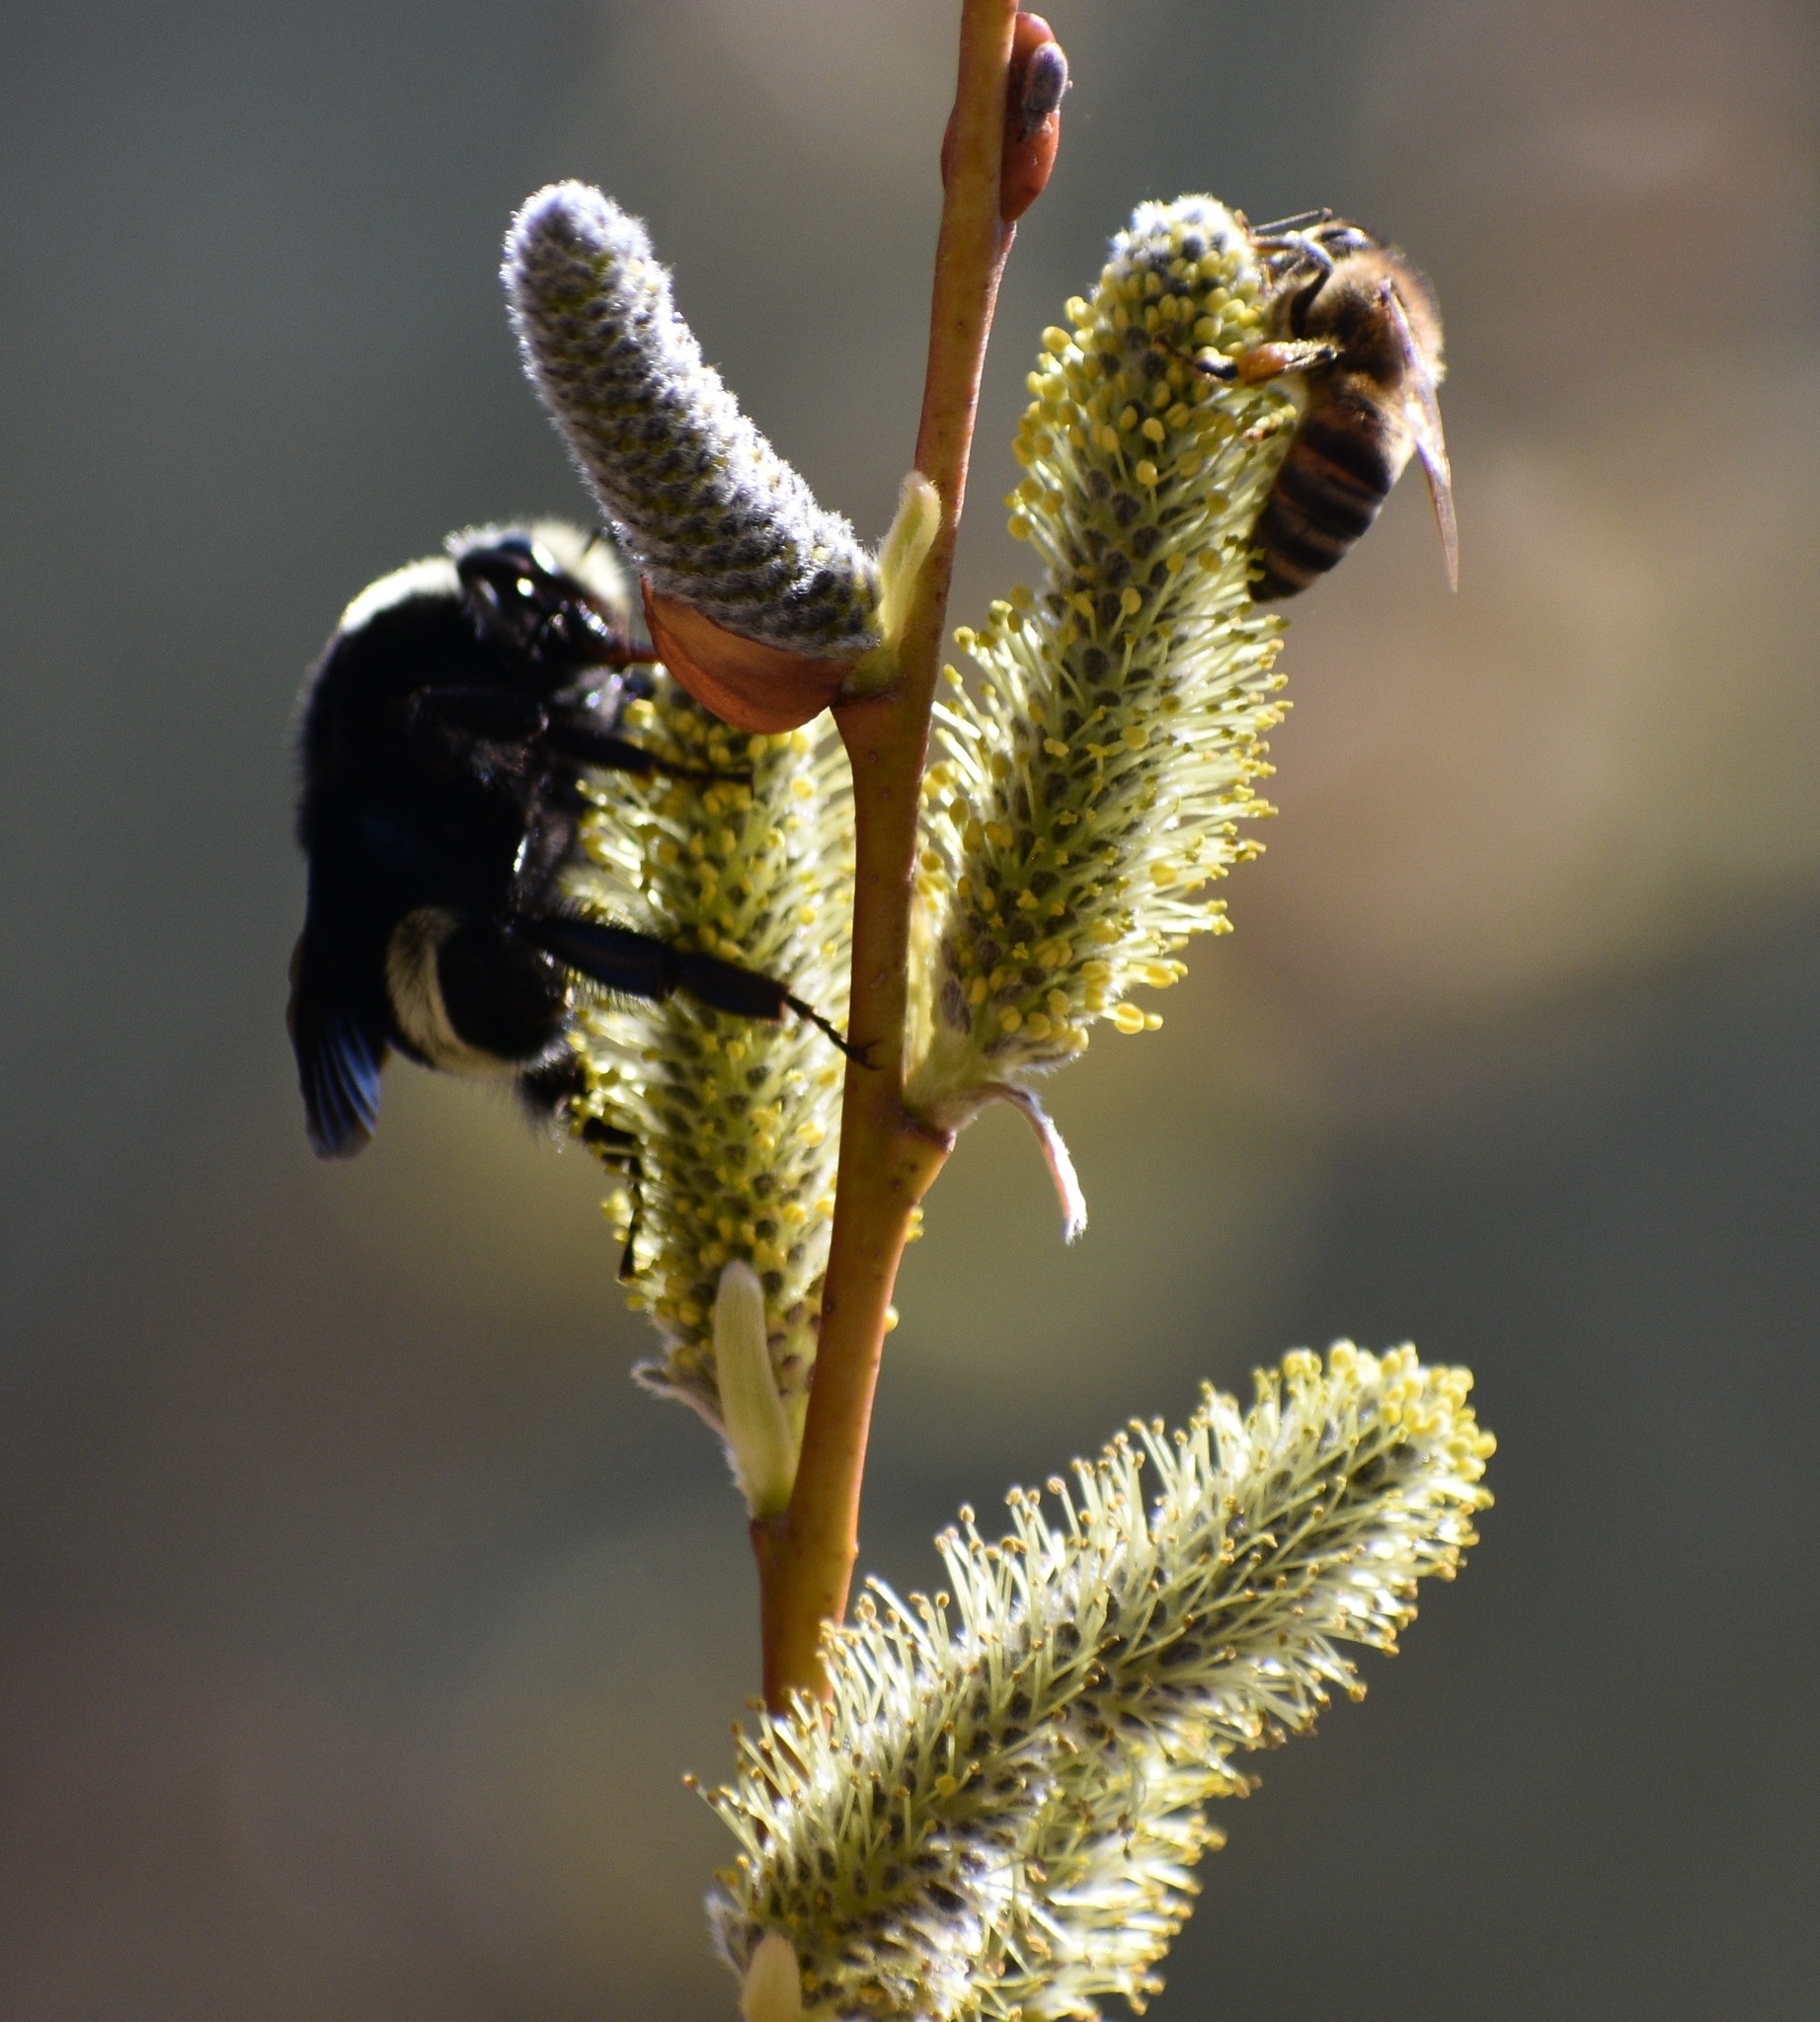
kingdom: Animalia
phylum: Arthropoda
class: Insecta
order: Hymenoptera
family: Apidae
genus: Bombus
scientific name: Bombus vosnesenskii
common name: Vosnesensky bumble bee
